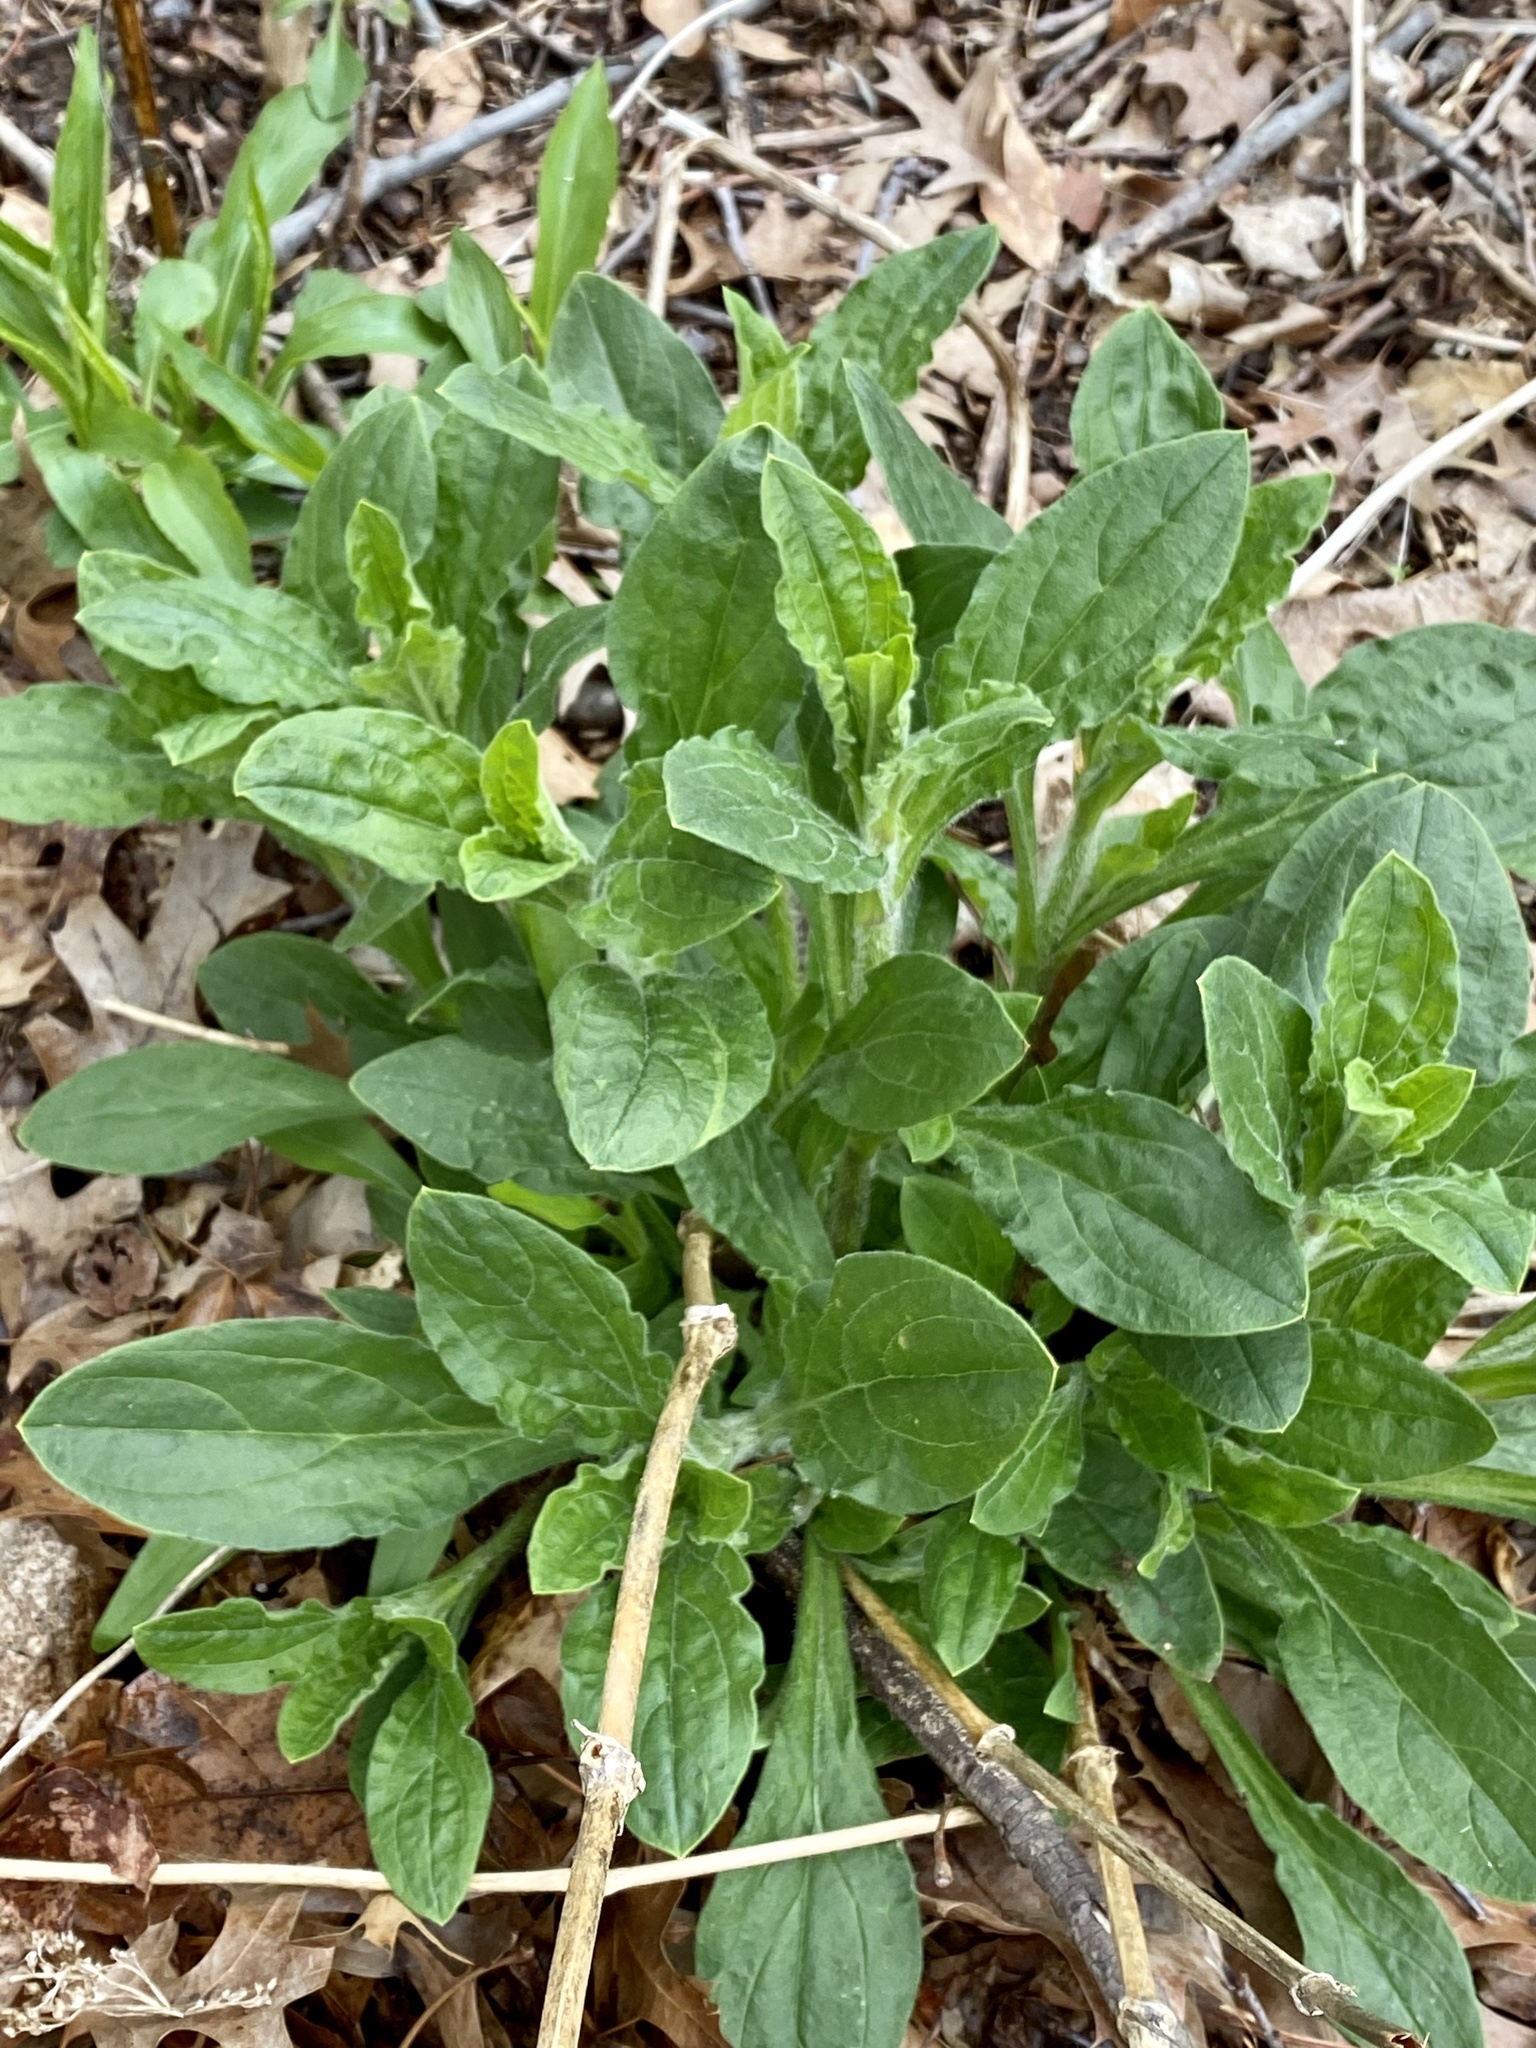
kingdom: Plantae
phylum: Tracheophyta
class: Magnoliopsida
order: Caryophyllales
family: Caryophyllaceae
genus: Silene
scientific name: Silene latifolia
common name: White campion
